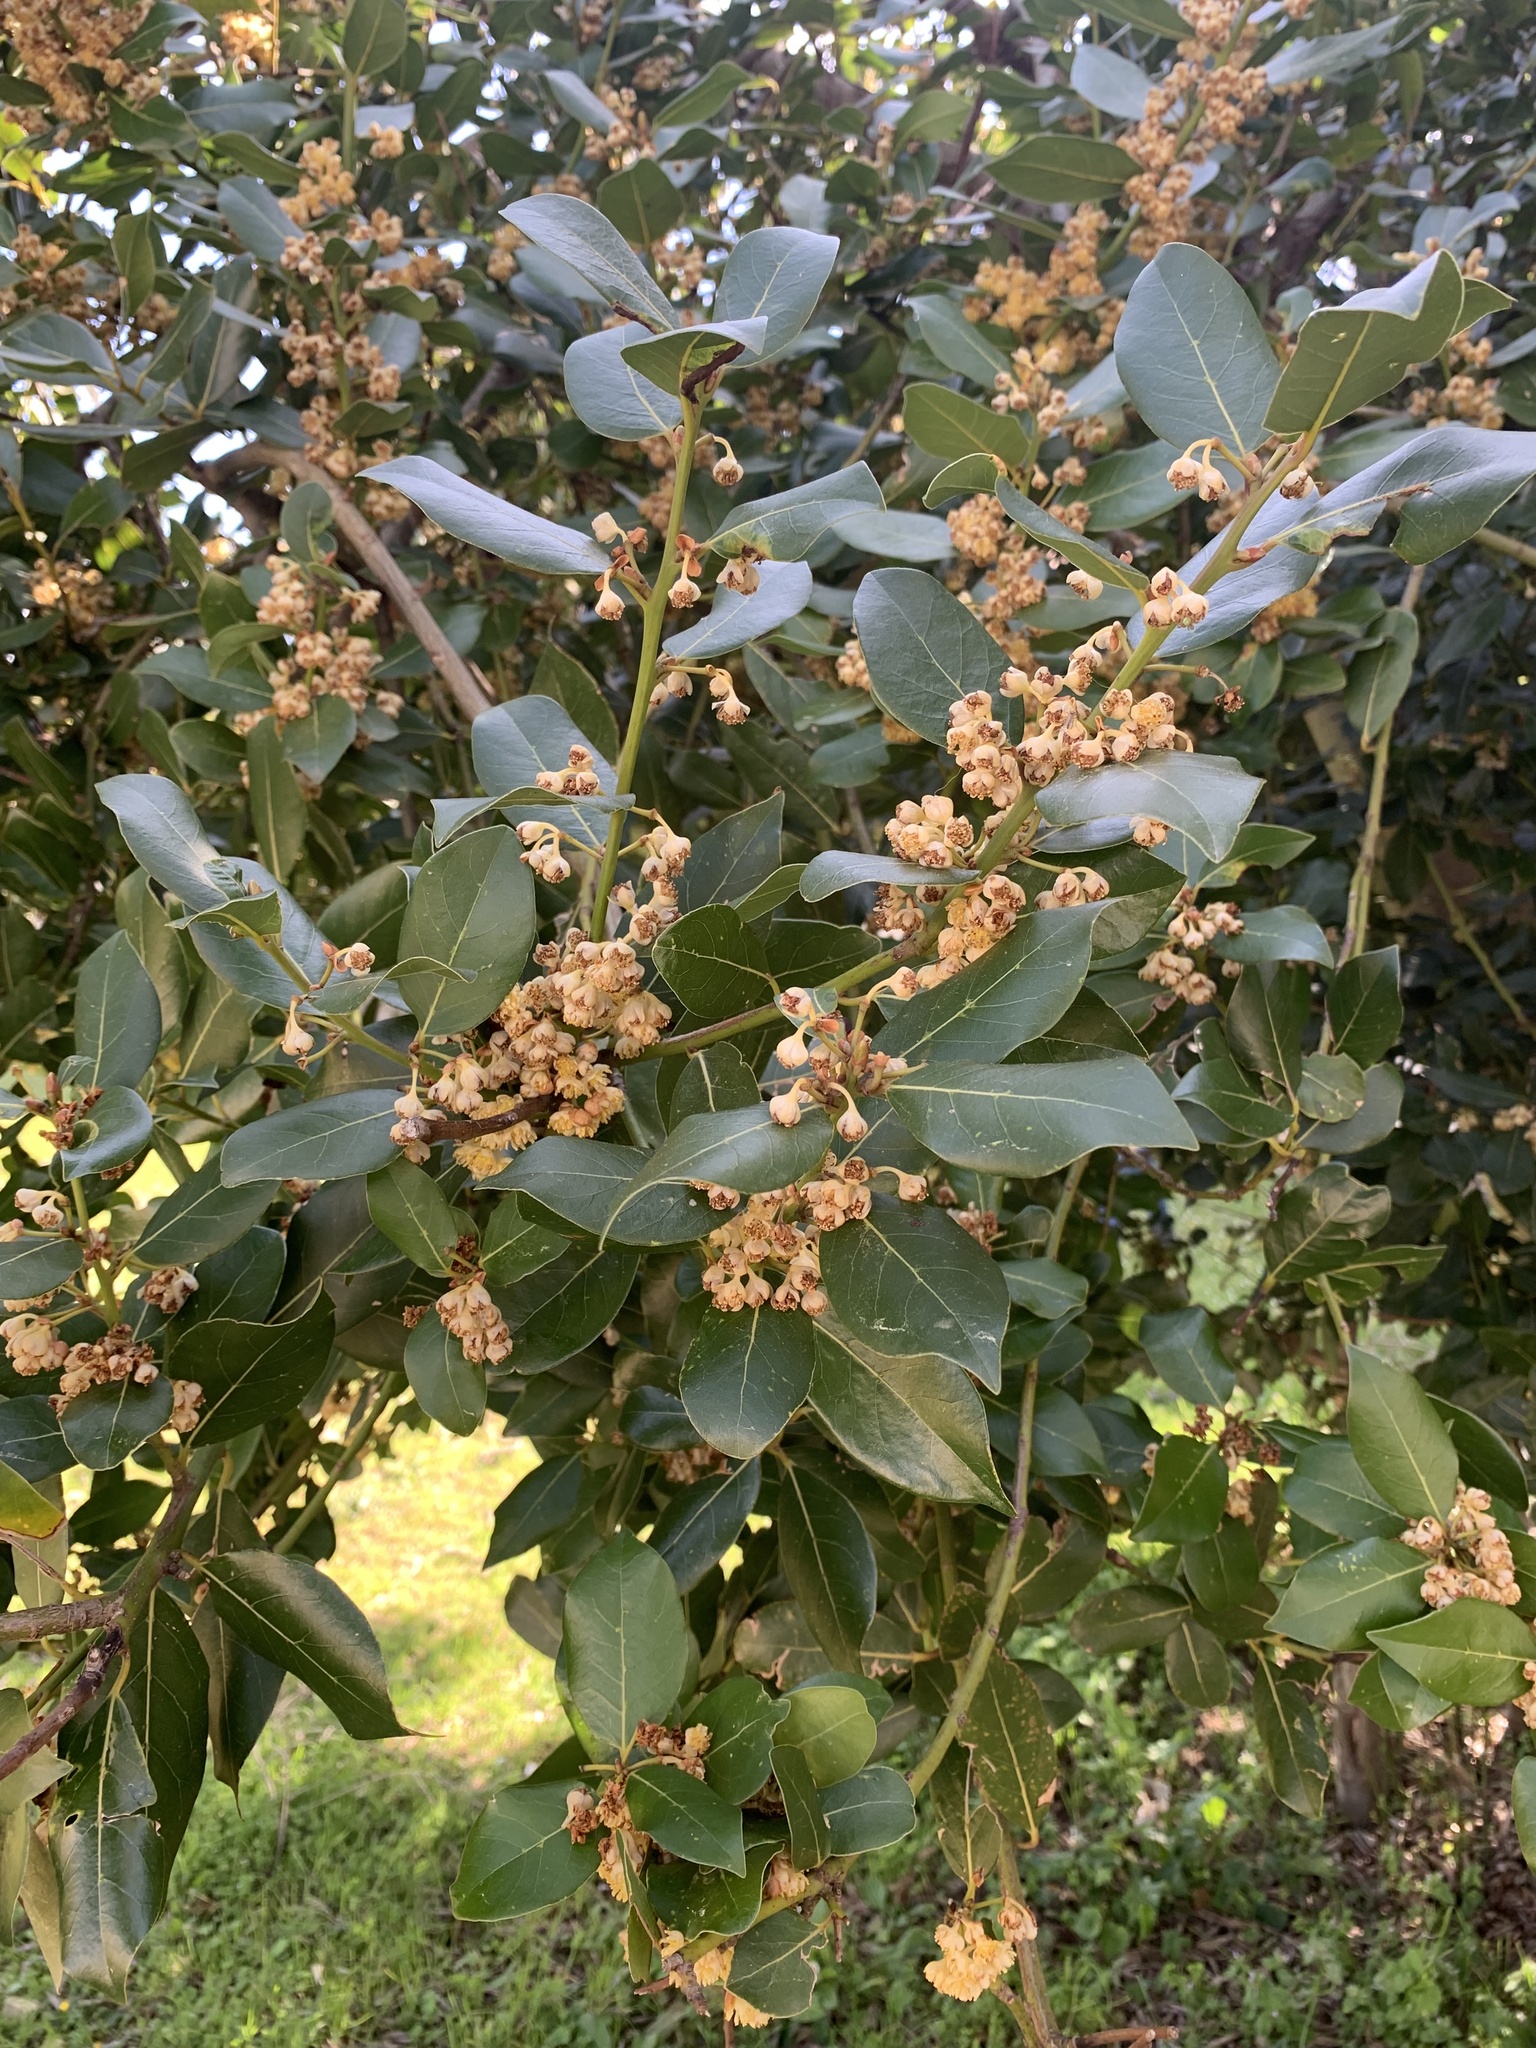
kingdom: Plantae
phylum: Tracheophyta
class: Magnoliopsida
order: Laurales
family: Lauraceae
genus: Laurus
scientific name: Laurus nobilis
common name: Bay
